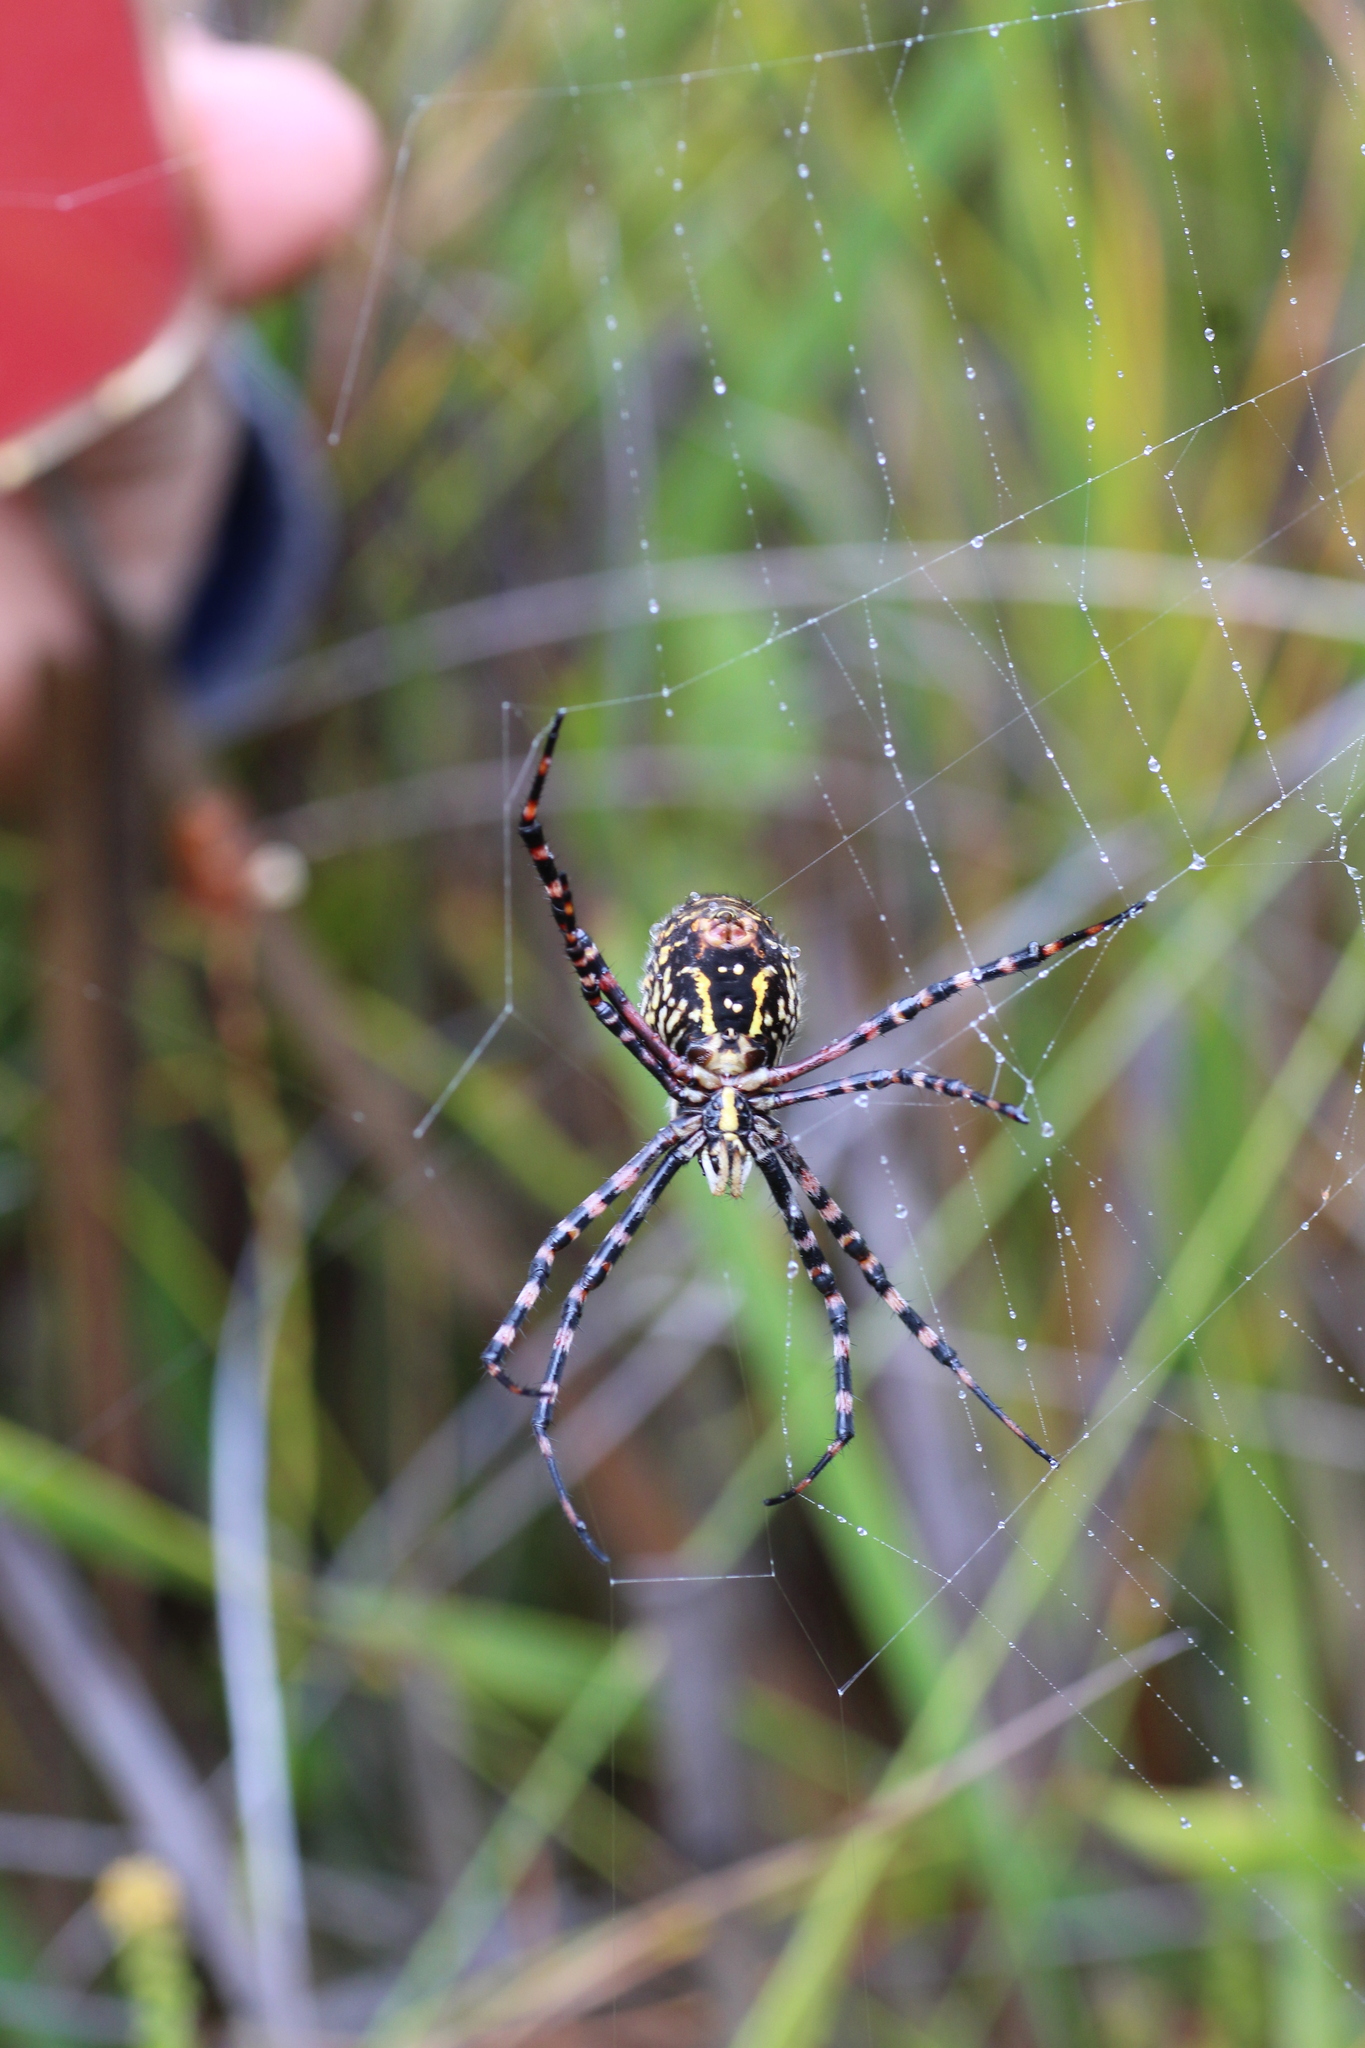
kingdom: Animalia
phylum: Arthropoda
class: Arachnida
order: Araneae
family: Araneidae
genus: Argiope
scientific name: Argiope trifasciata
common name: Banded garden spider
